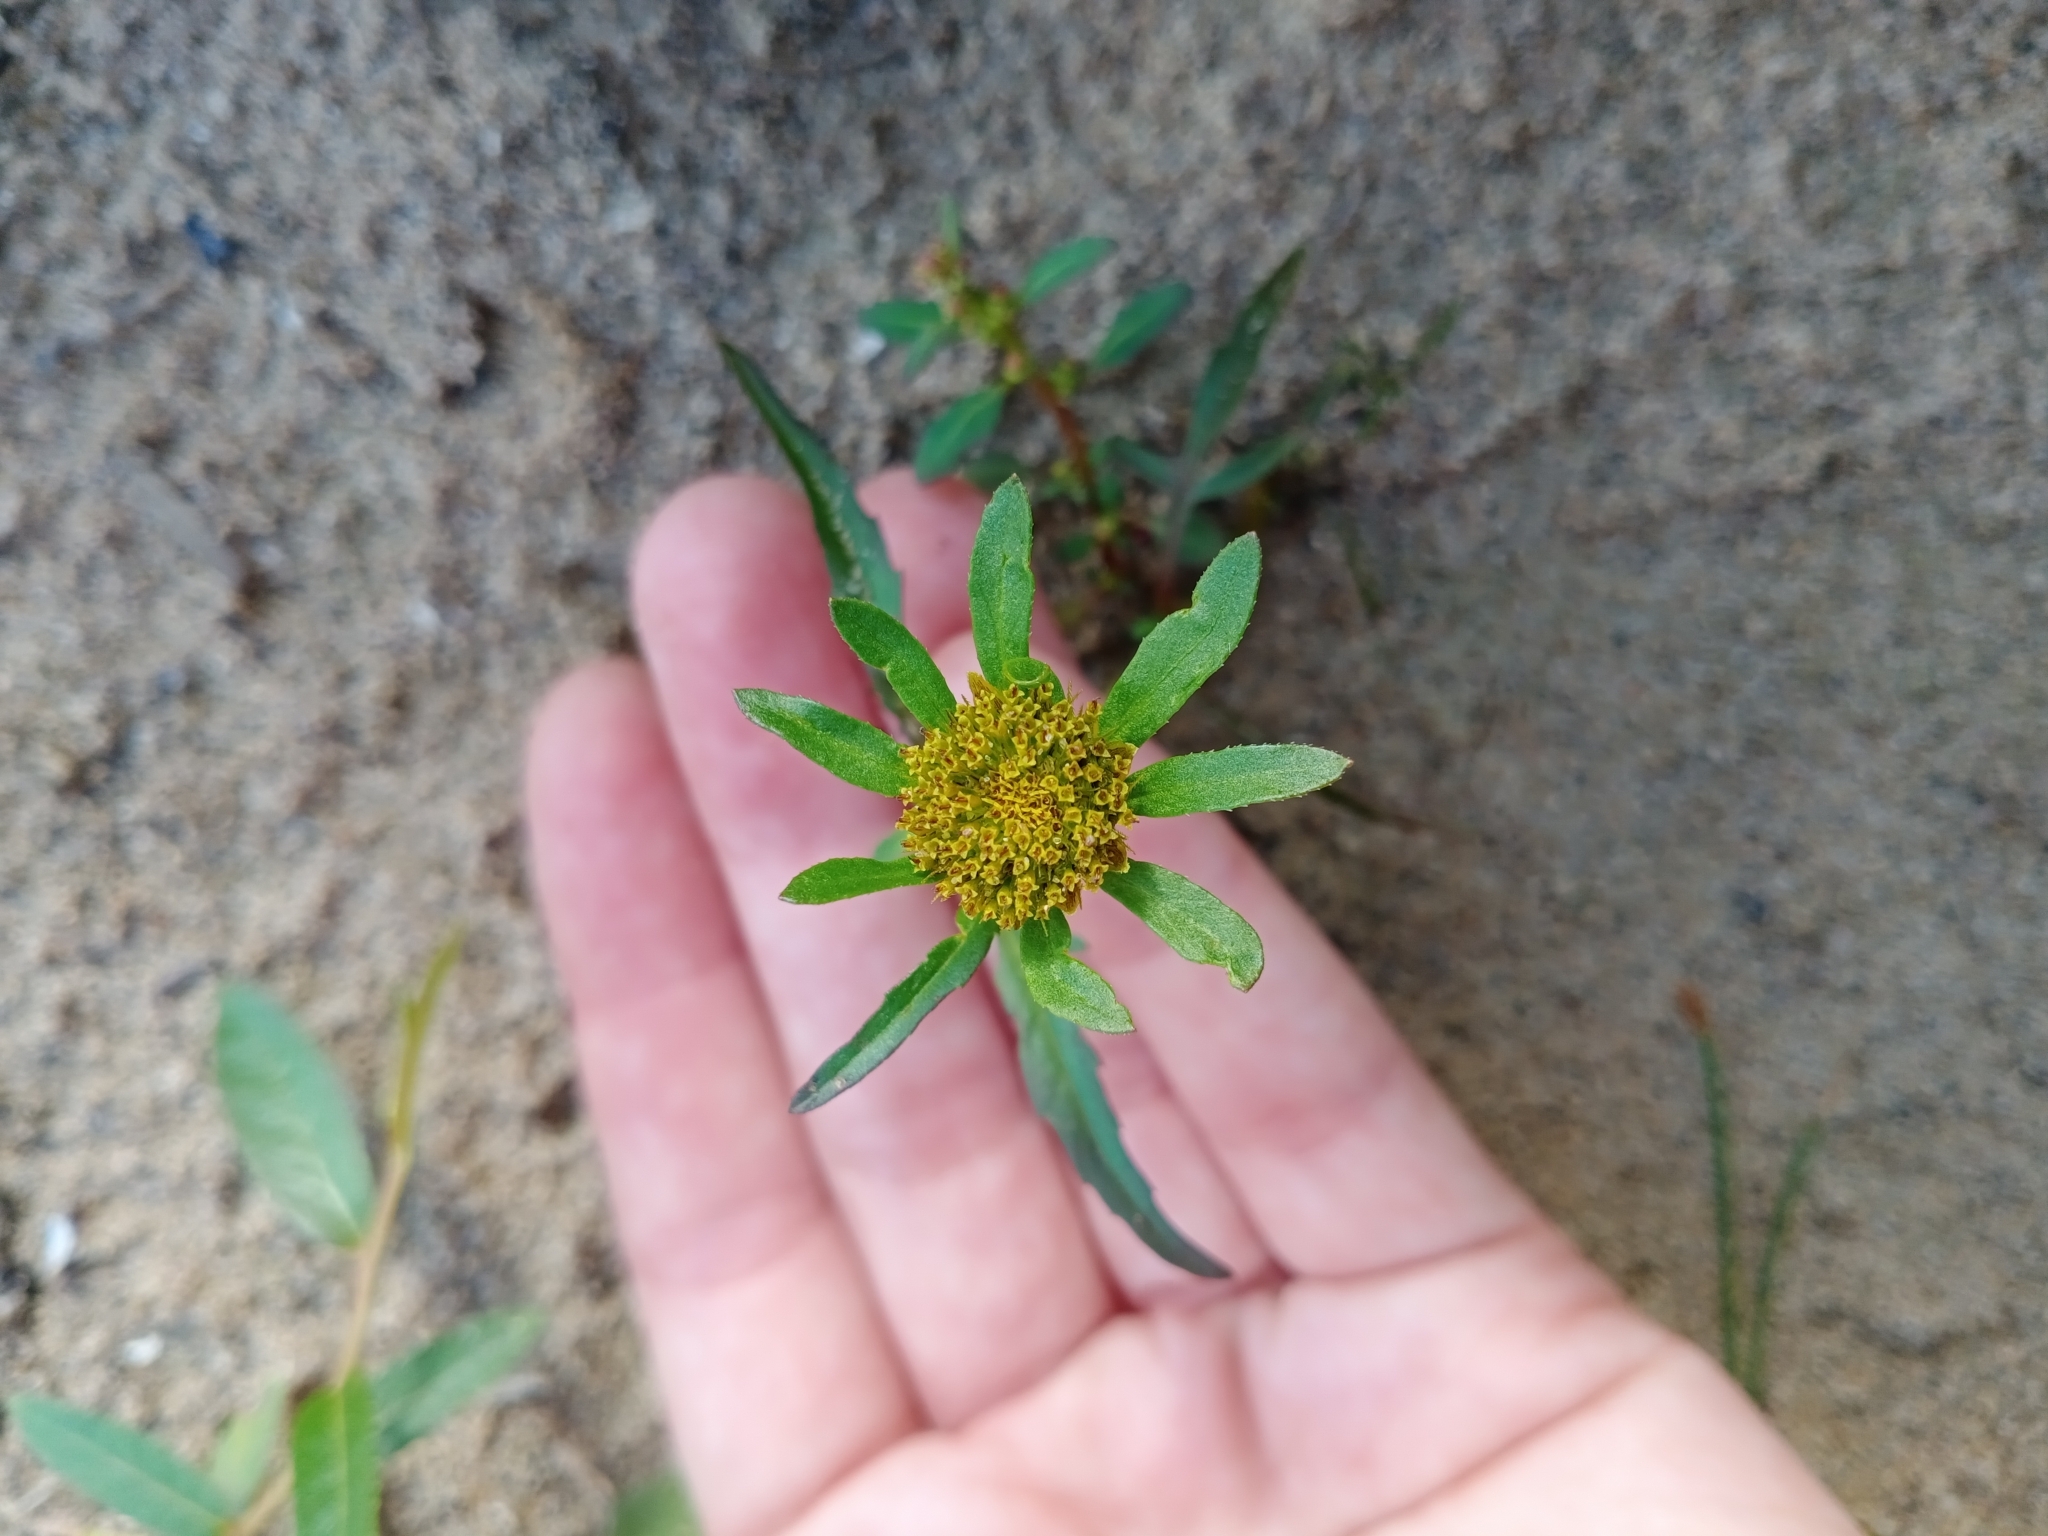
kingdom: Plantae
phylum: Tracheophyta
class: Magnoliopsida
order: Asterales
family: Asteraceae
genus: Bidens
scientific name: Bidens radiata
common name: Radiating bur-marigold
